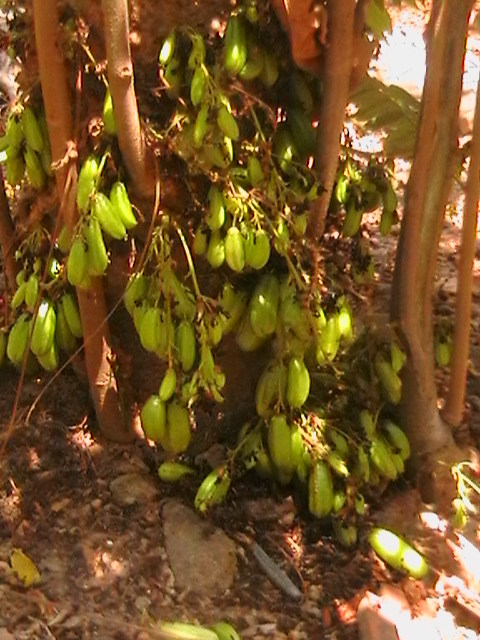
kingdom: Plantae
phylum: Tracheophyta
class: Magnoliopsida
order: Oxalidales
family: Oxalidaceae
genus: Averrhoa
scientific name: Averrhoa bilimbi
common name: Bilimbi
